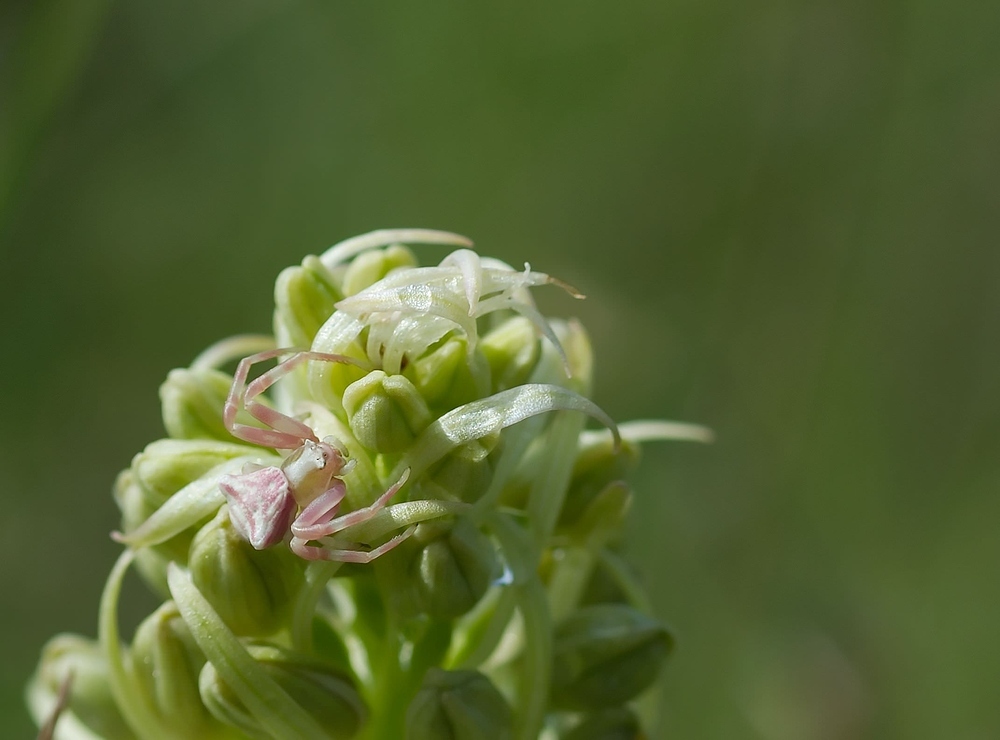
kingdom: Animalia
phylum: Arthropoda
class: Arachnida
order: Araneae
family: Thomisidae
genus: Thomisus
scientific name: Thomisus onustus
